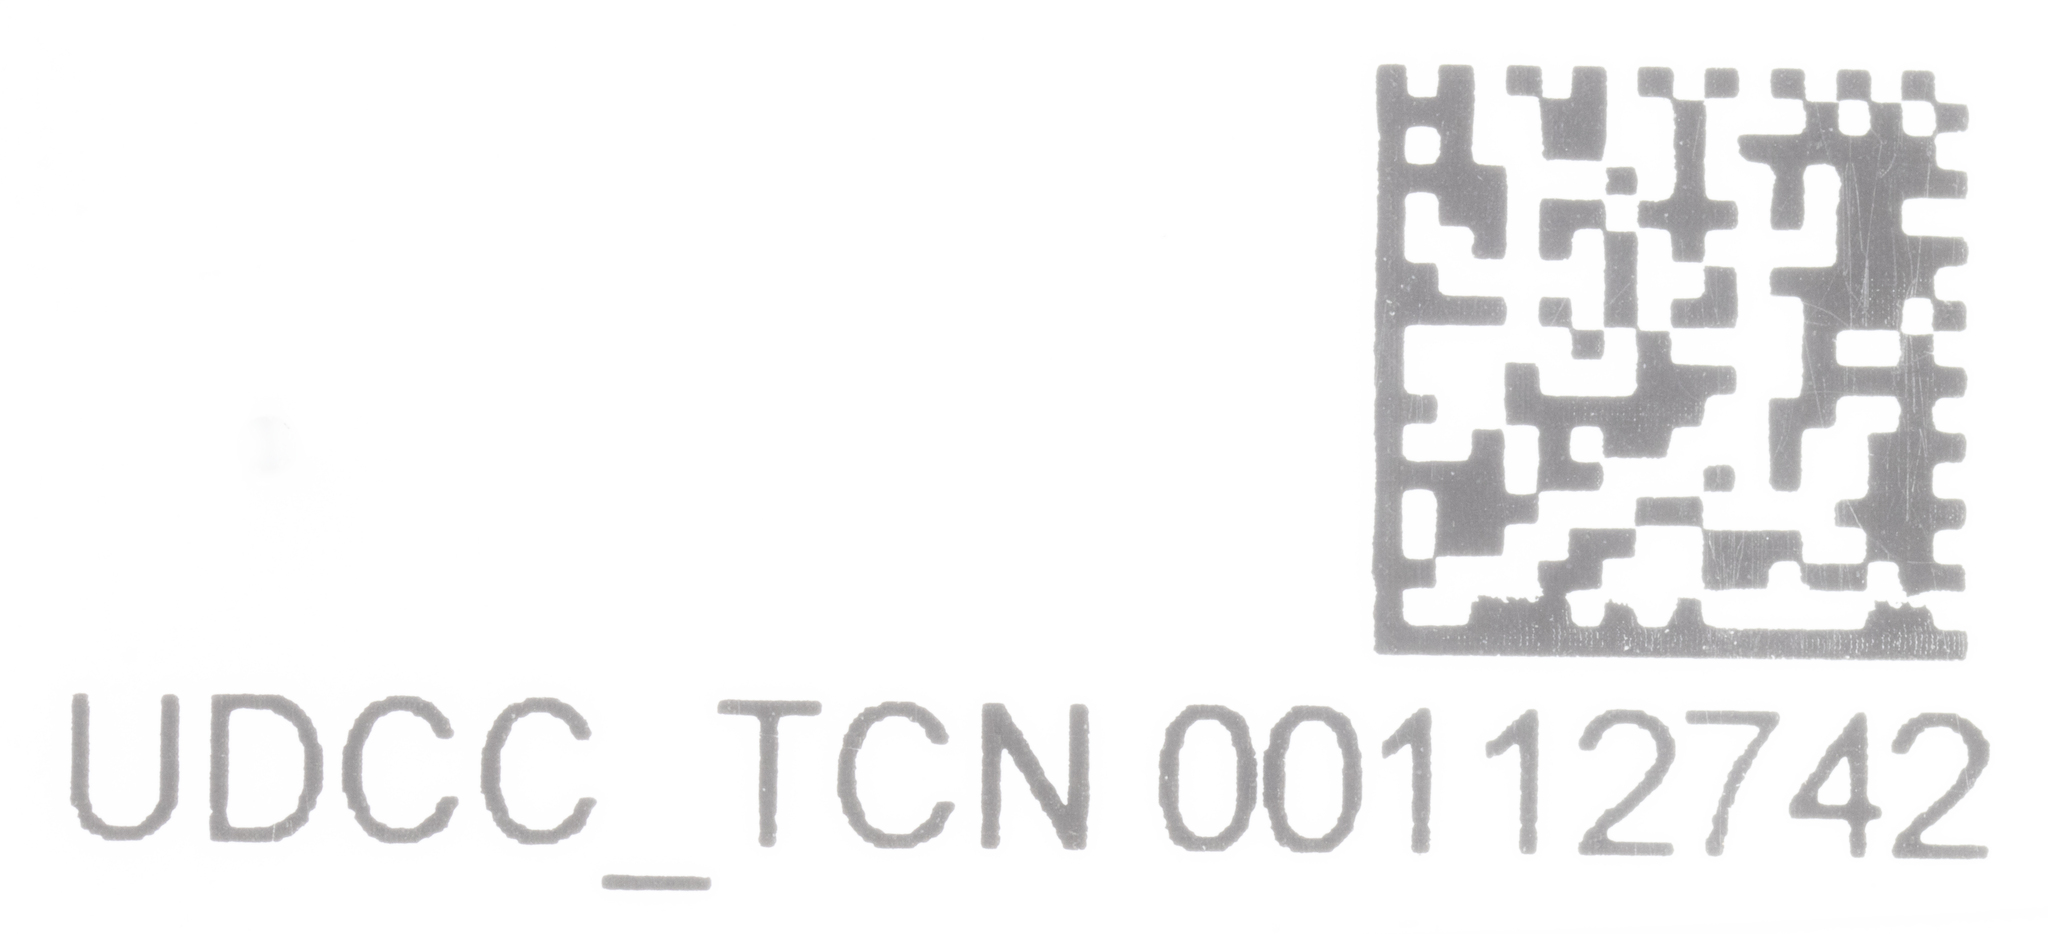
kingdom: Animalia
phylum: Arthropoda
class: Insecta
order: Hemiptera
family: Delphacidae
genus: Laodelphax
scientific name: Laodelphax striatellus
